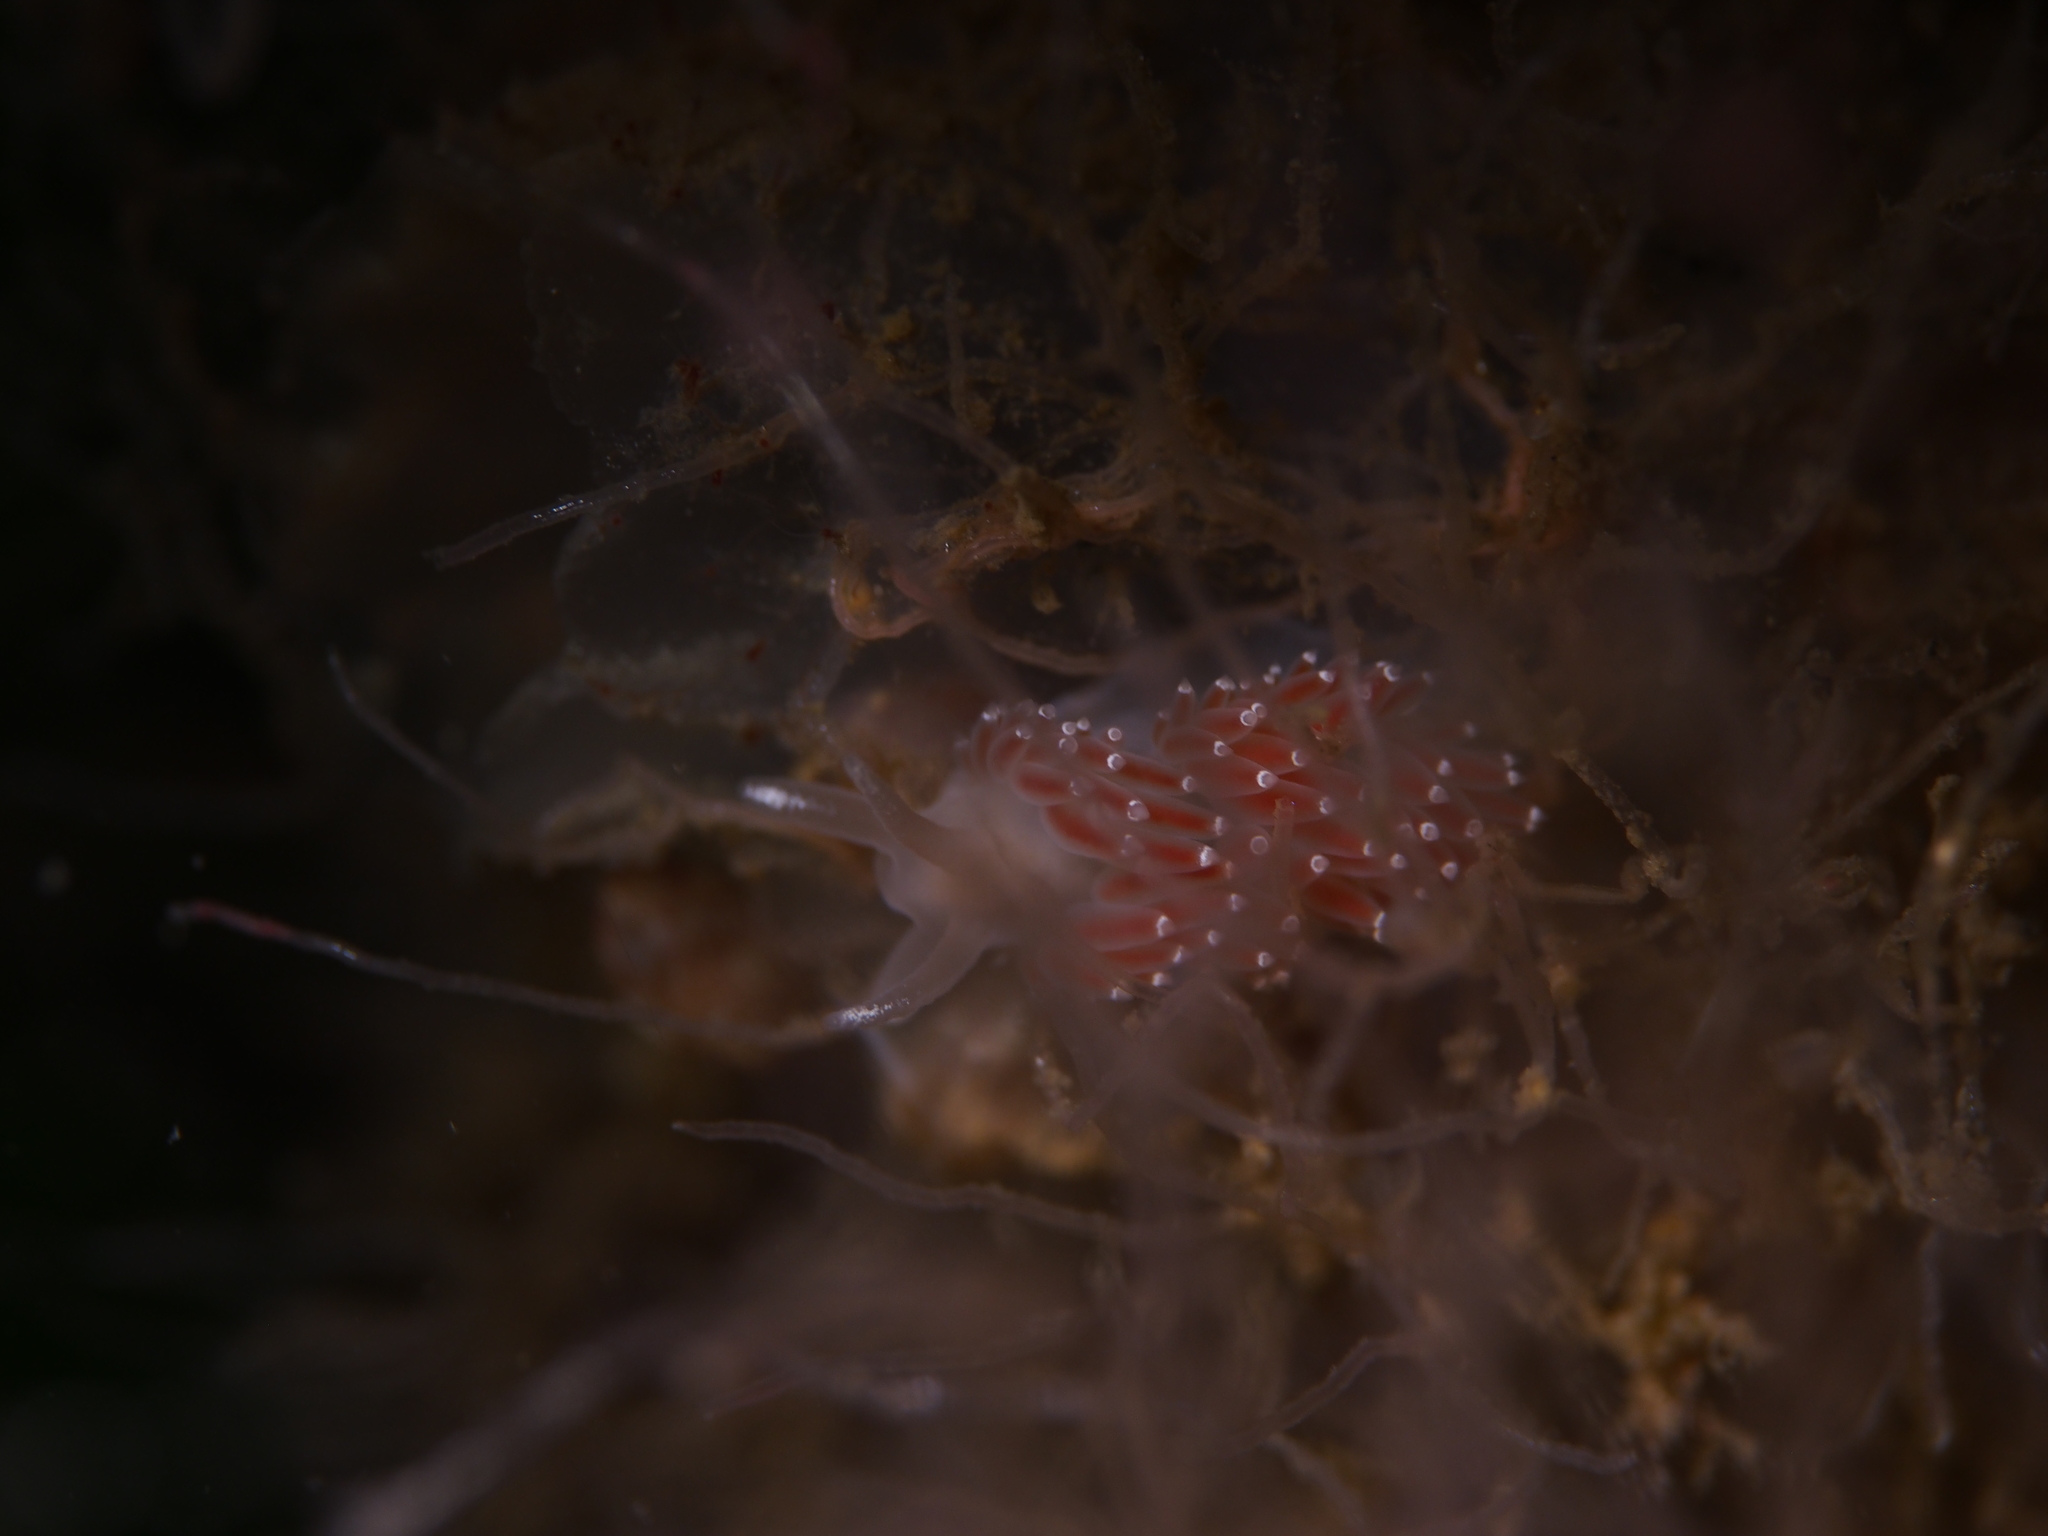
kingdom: Animalia
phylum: Mollusca
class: Gastropoda
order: Nudibranchia
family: Coryphellidae
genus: Coryphella
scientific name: Coryphella verrucosa
